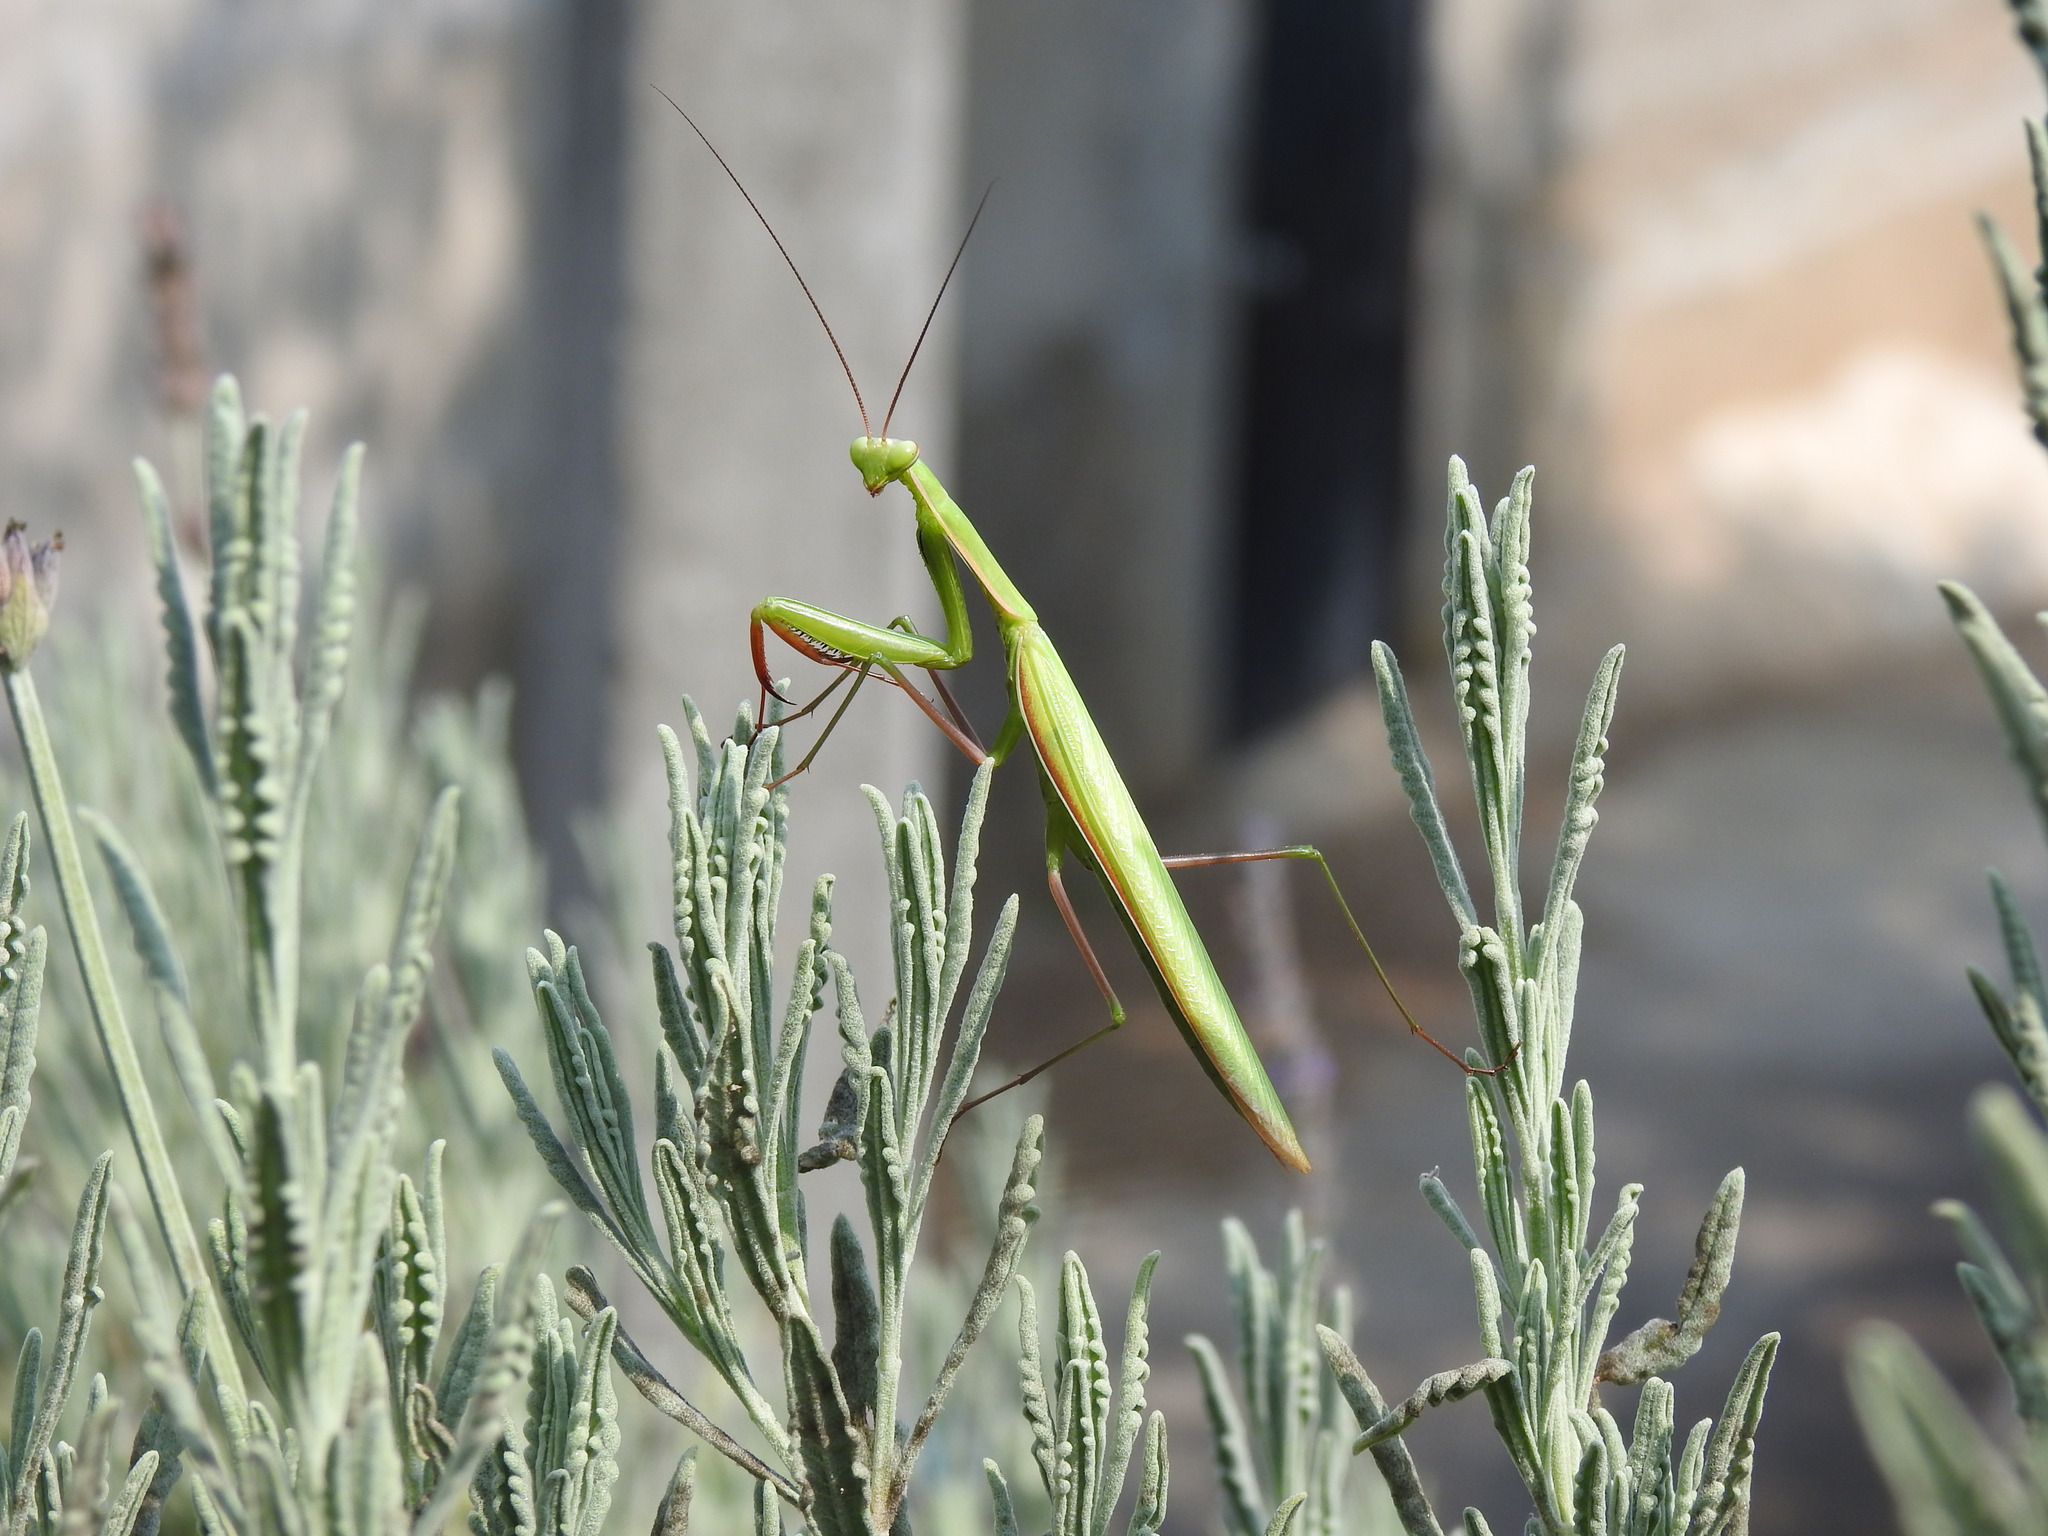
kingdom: Animalia
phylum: Arthropoda
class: Insecta
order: Mantodea
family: Mantidae
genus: Mantis
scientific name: Mantis religiosa
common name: Praying mantis
